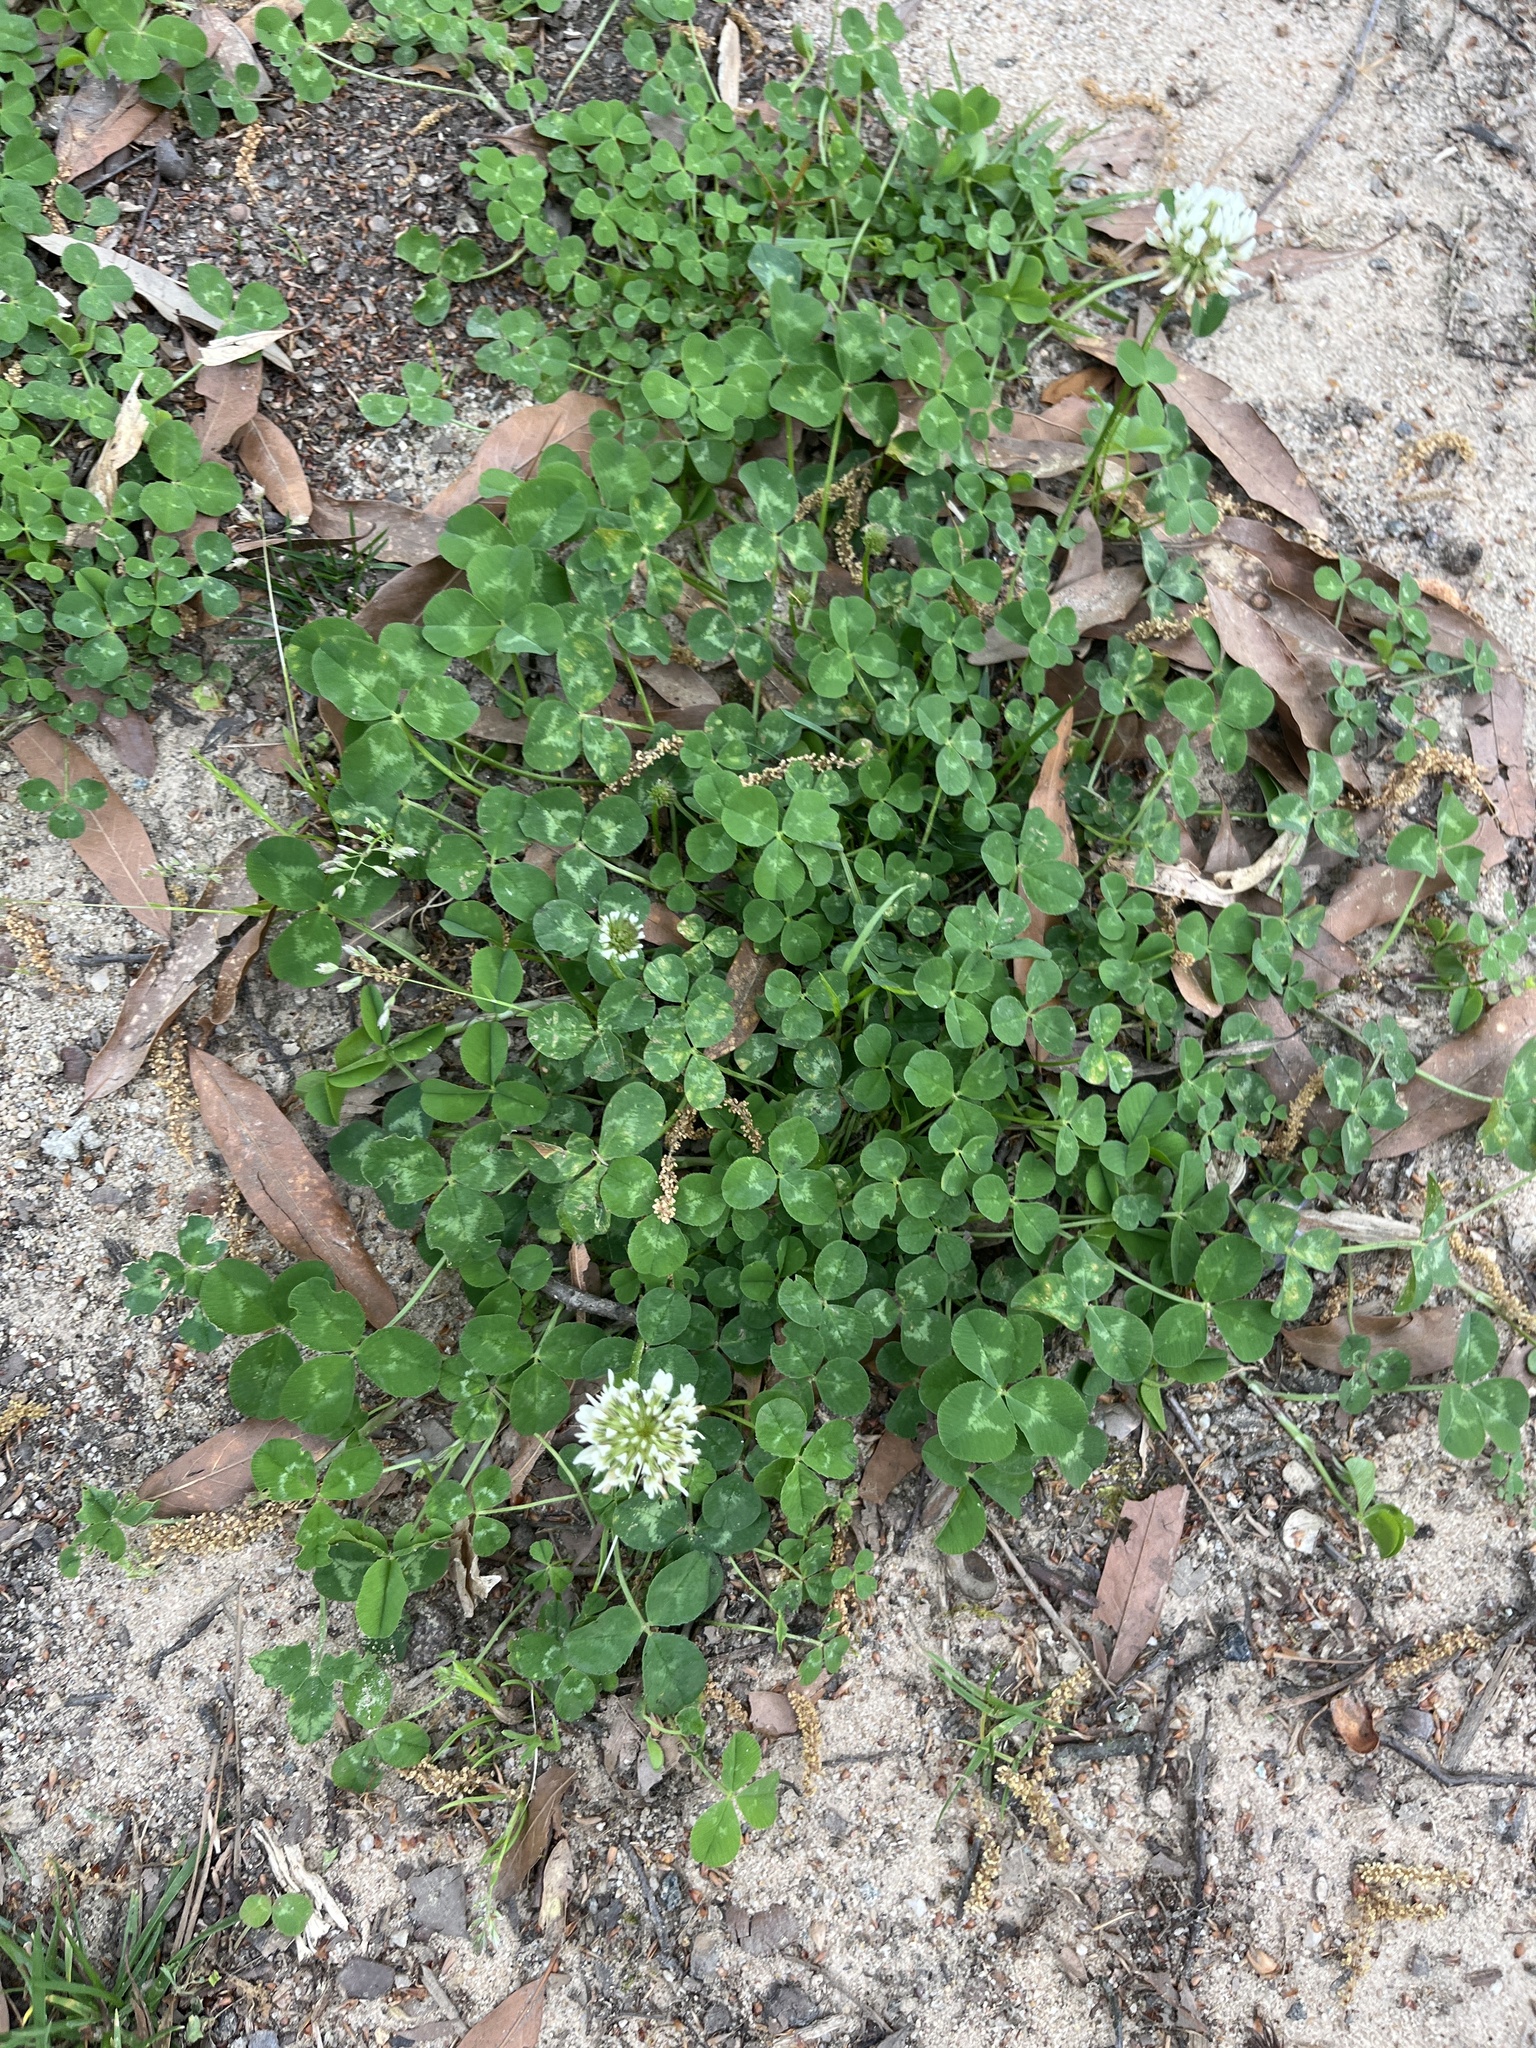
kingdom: Plantae
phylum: Tracheophyta
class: Magnoliopsida
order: Fabales
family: Fabaceae
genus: Trifolium
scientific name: Trifolium repens
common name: White clover
